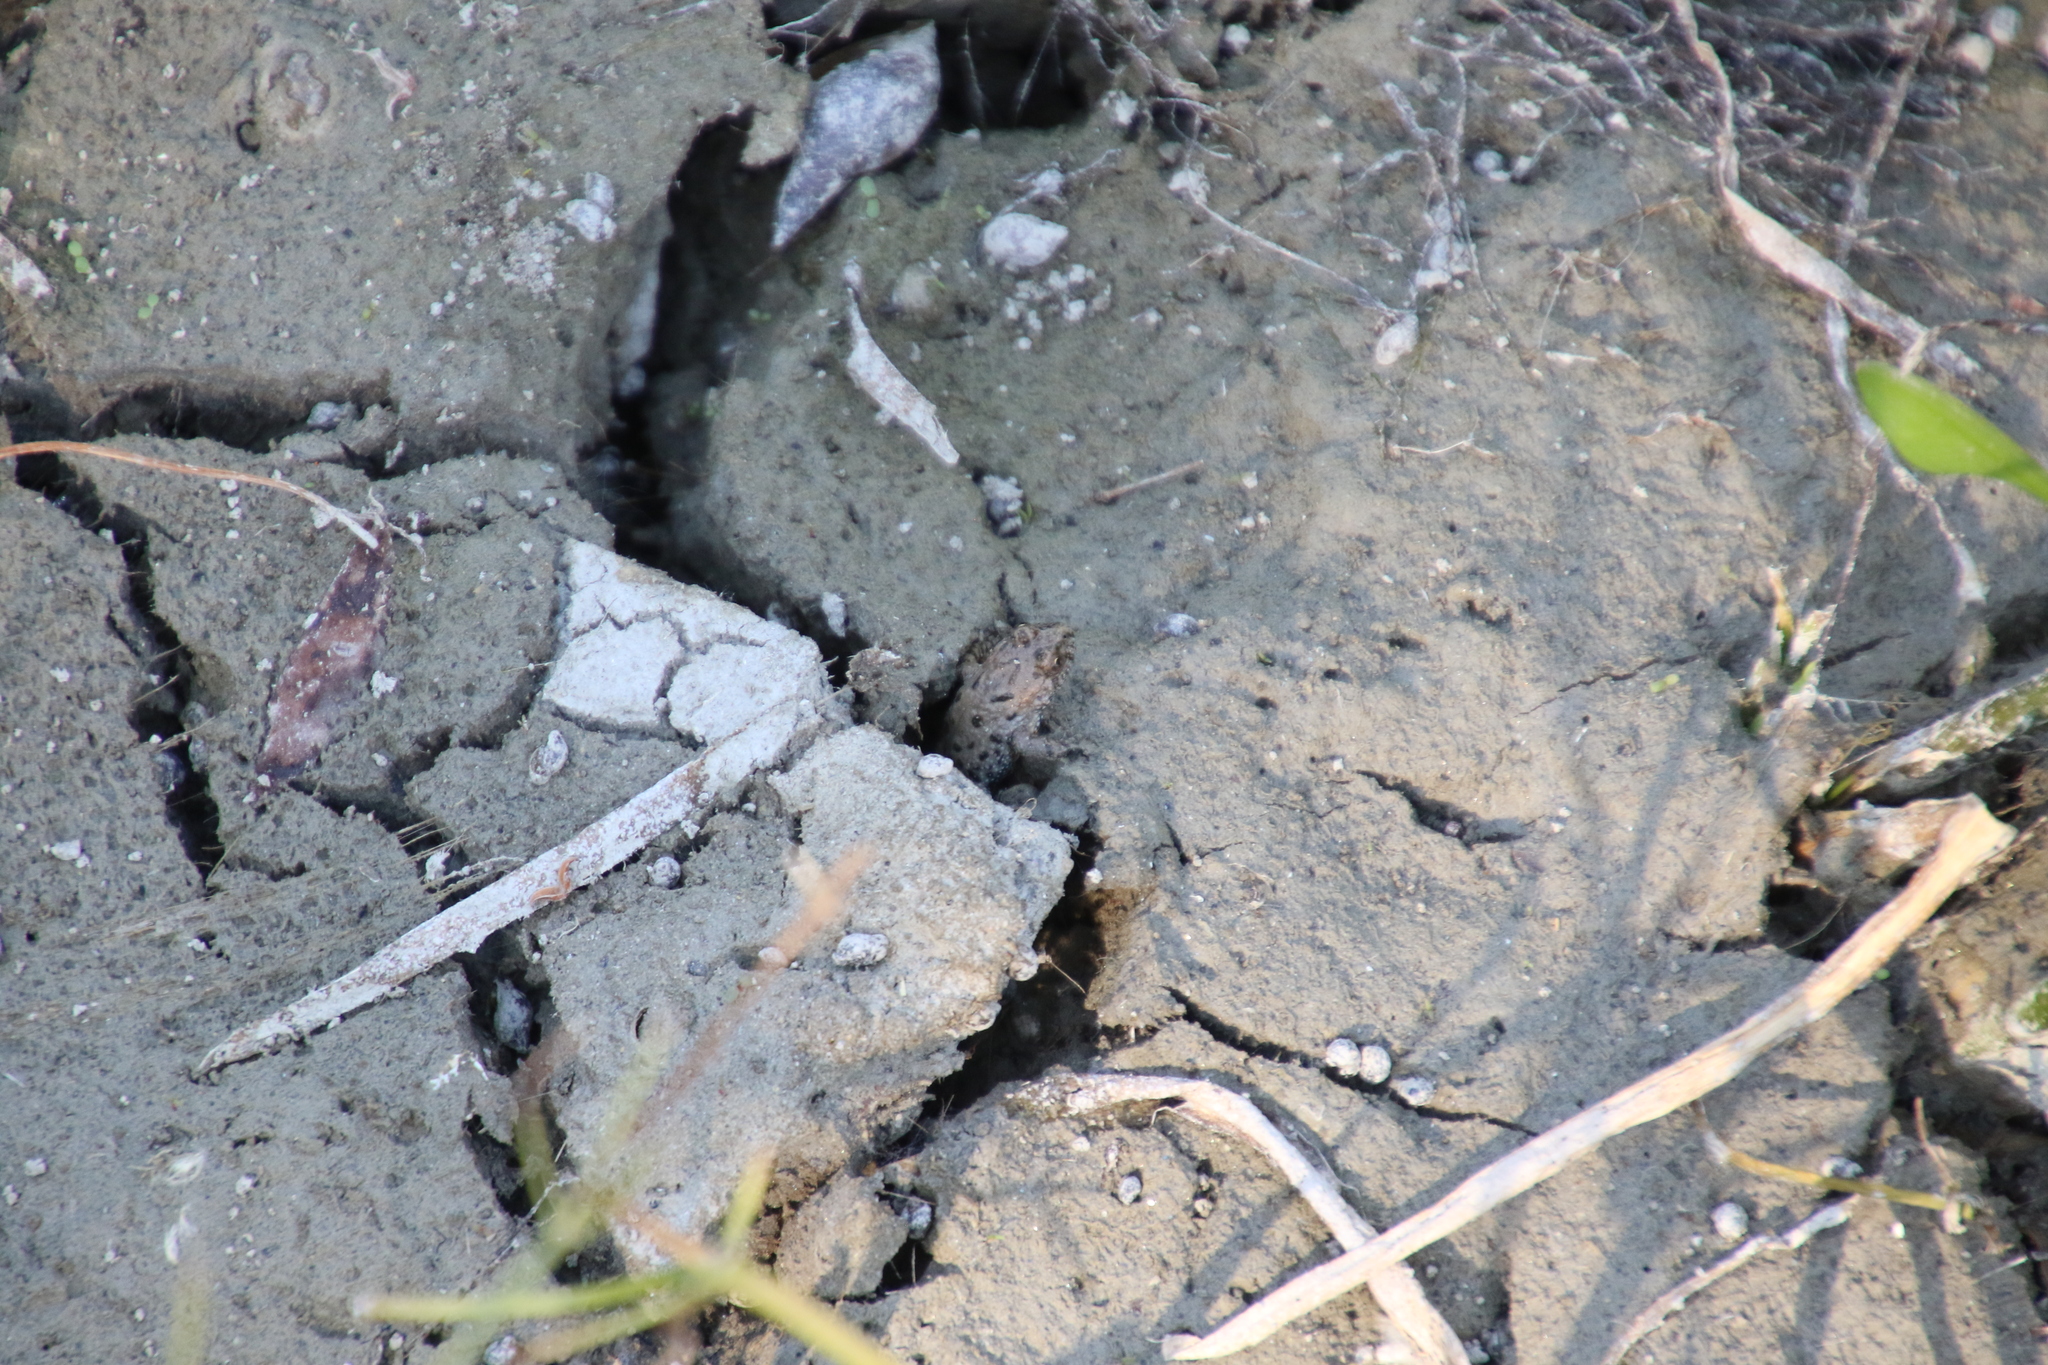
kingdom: Animalia
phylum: Chordata
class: Amphibia
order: Anura
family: Bombinatoridae
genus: Bombina
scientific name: Bombina bombina
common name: Fire-bellied toad
